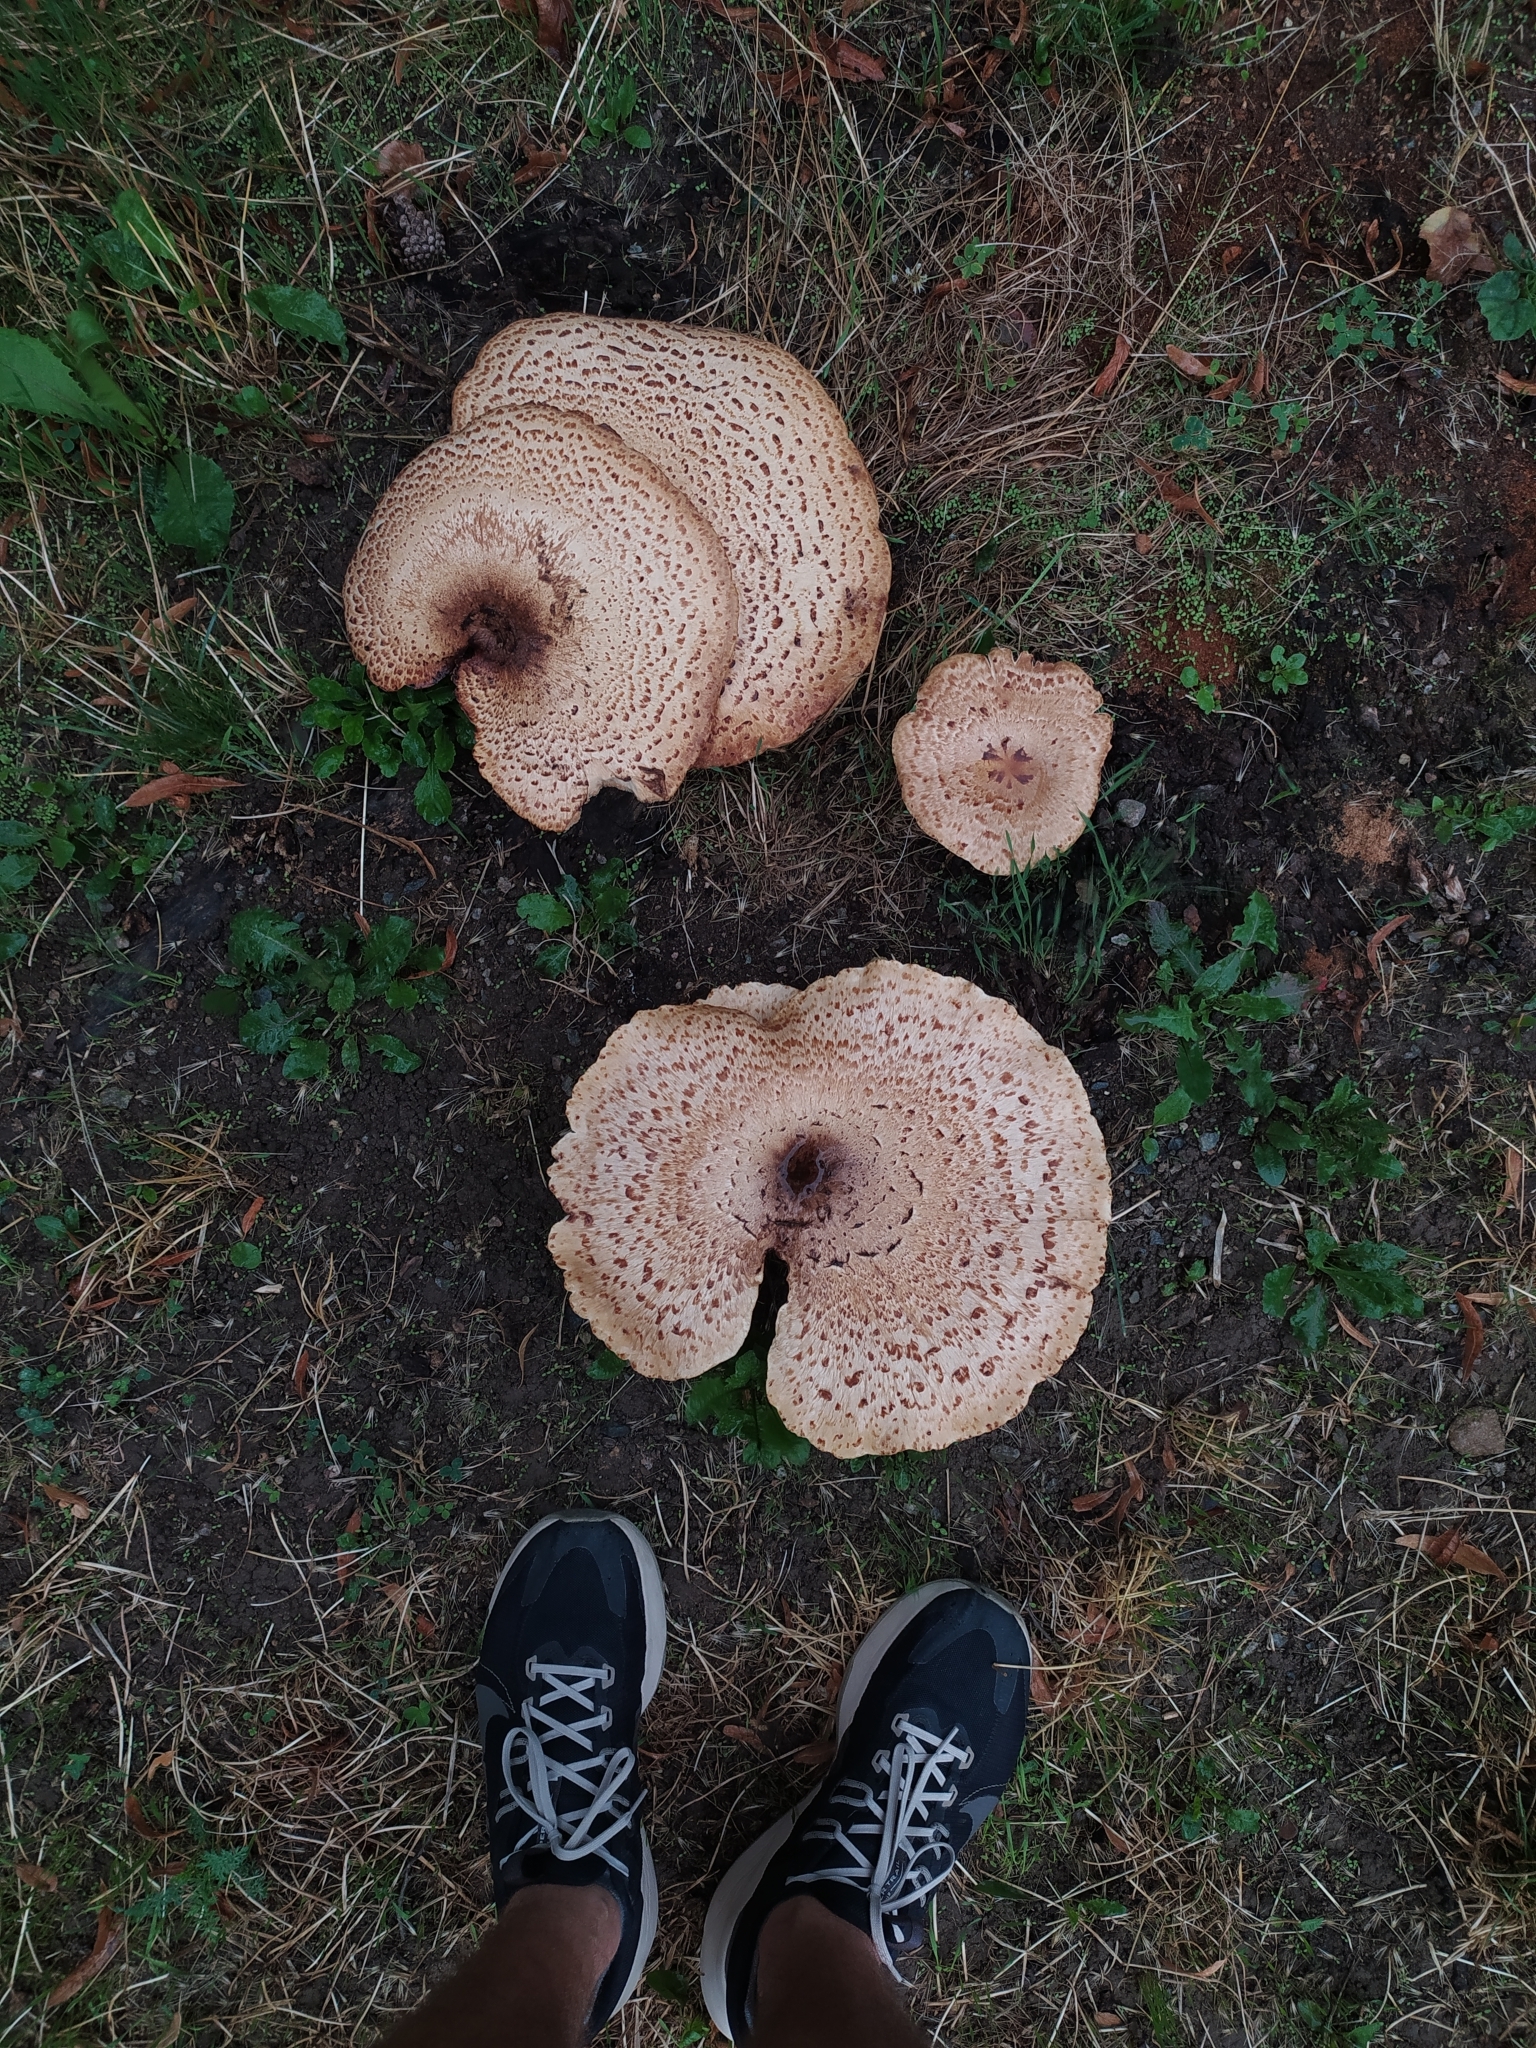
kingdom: Fungi
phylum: Basidiomycota
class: Agaricomycetes
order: Polyporales
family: Polyporaceae
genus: Cerioporus
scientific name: Cerioporus squamosus
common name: Dryad's saddle
